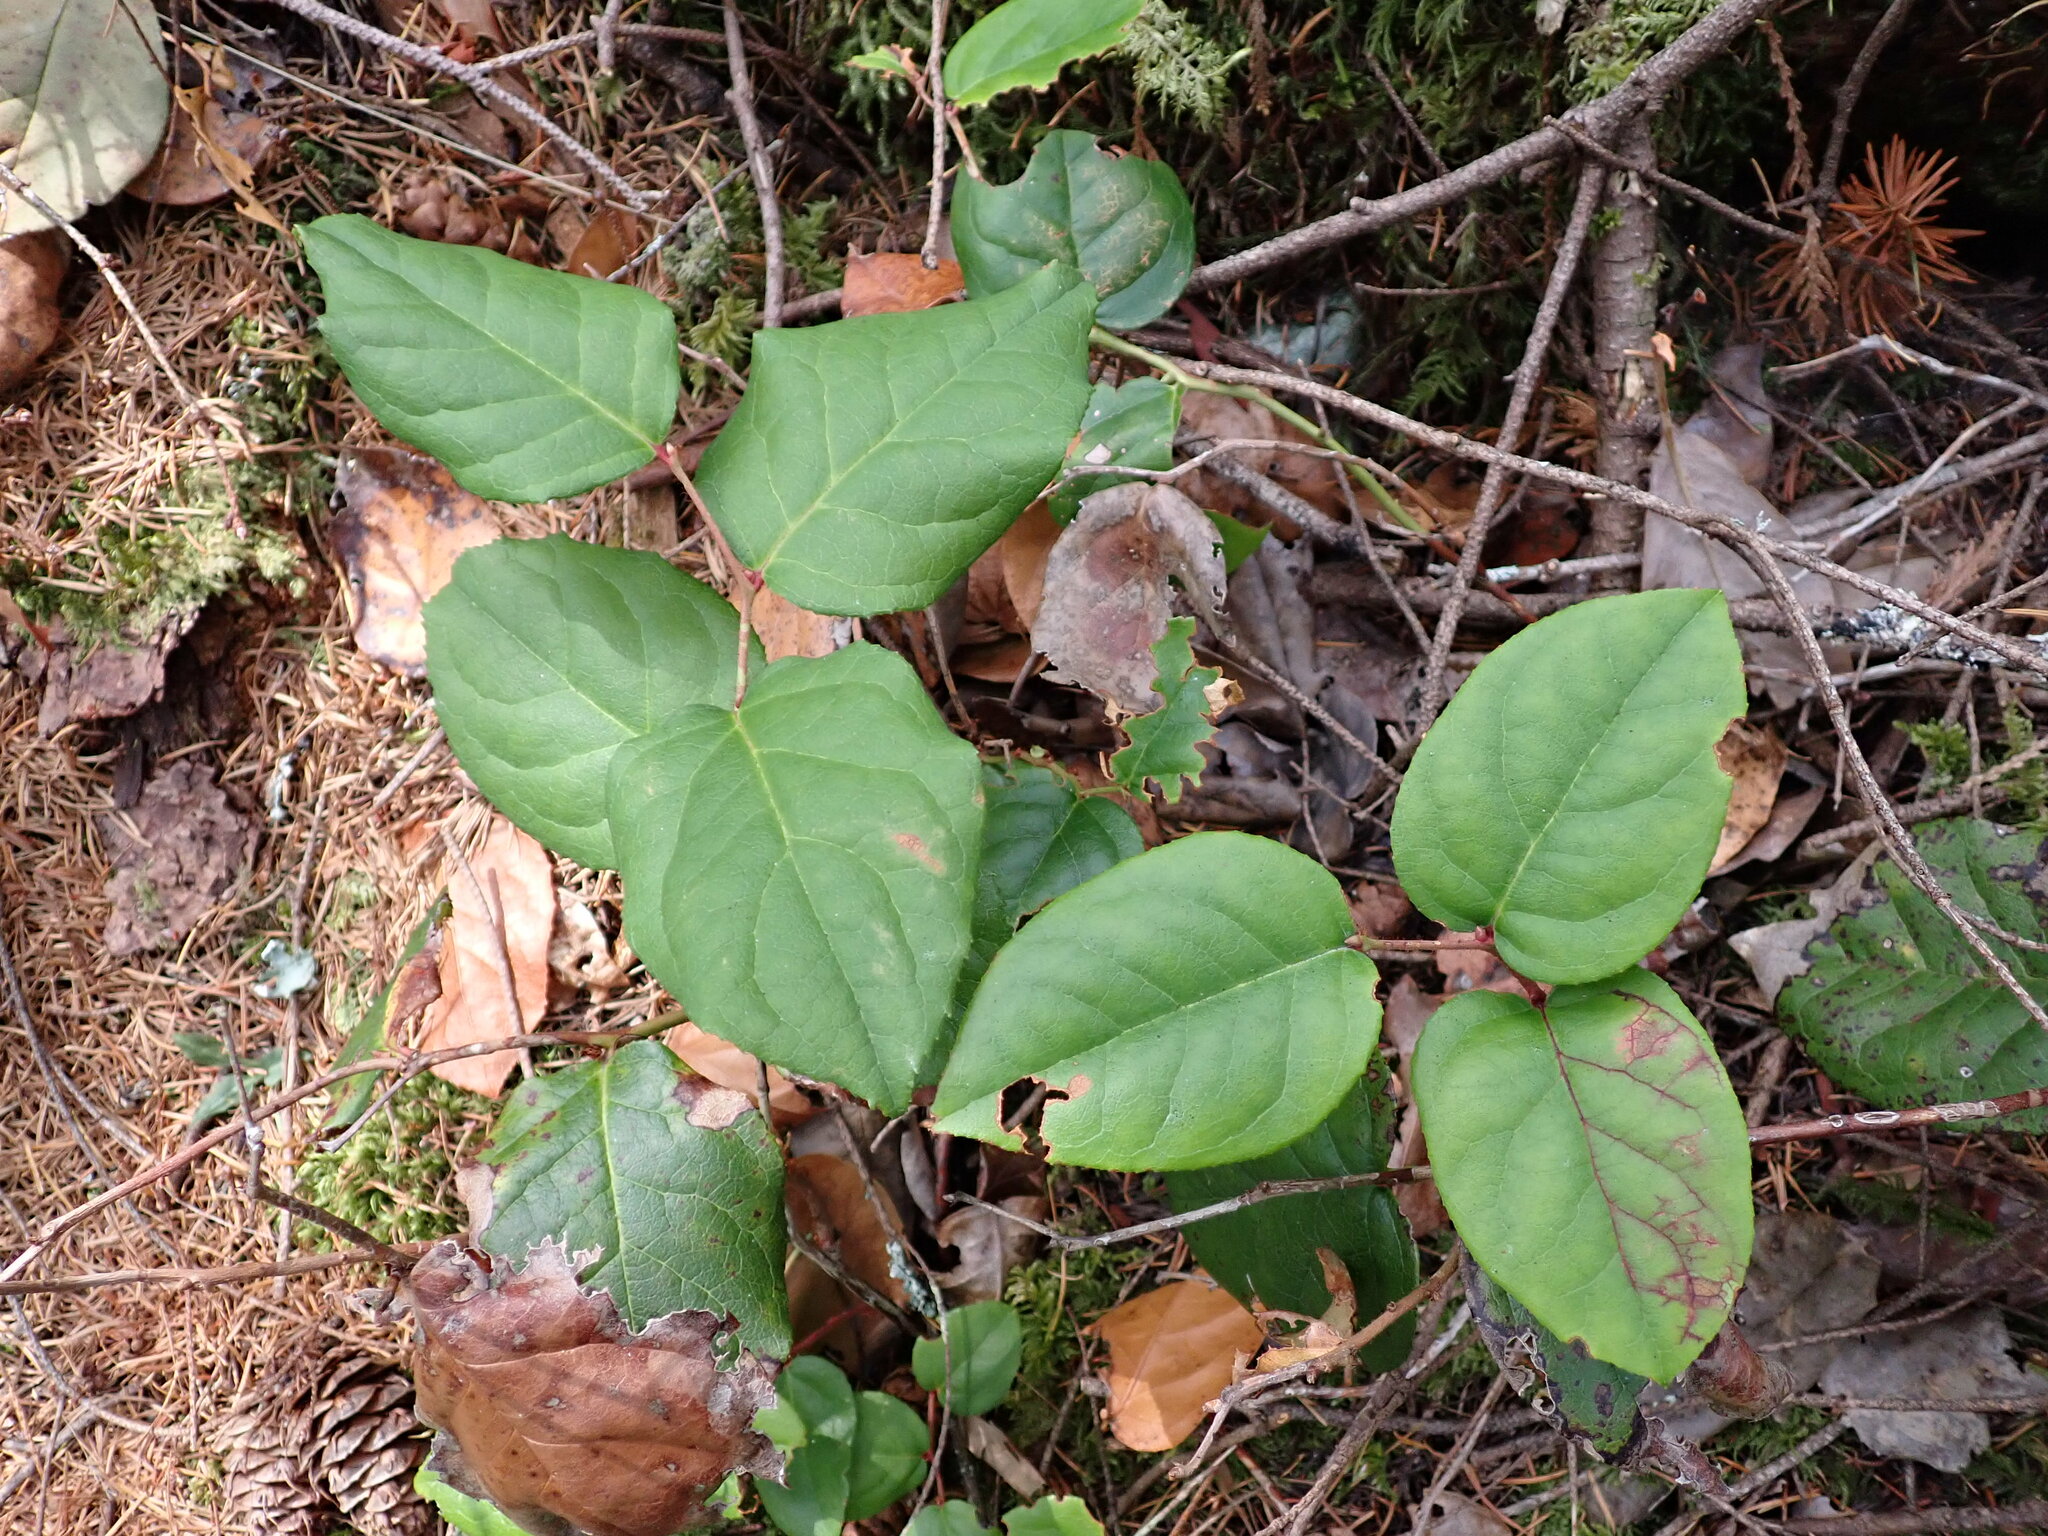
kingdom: Plantae
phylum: Tracheophyta
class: Magnoliopsida
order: Ericales
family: Ericaceae
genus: Gaultheria
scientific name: Gaultheria shallon
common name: Shallon
